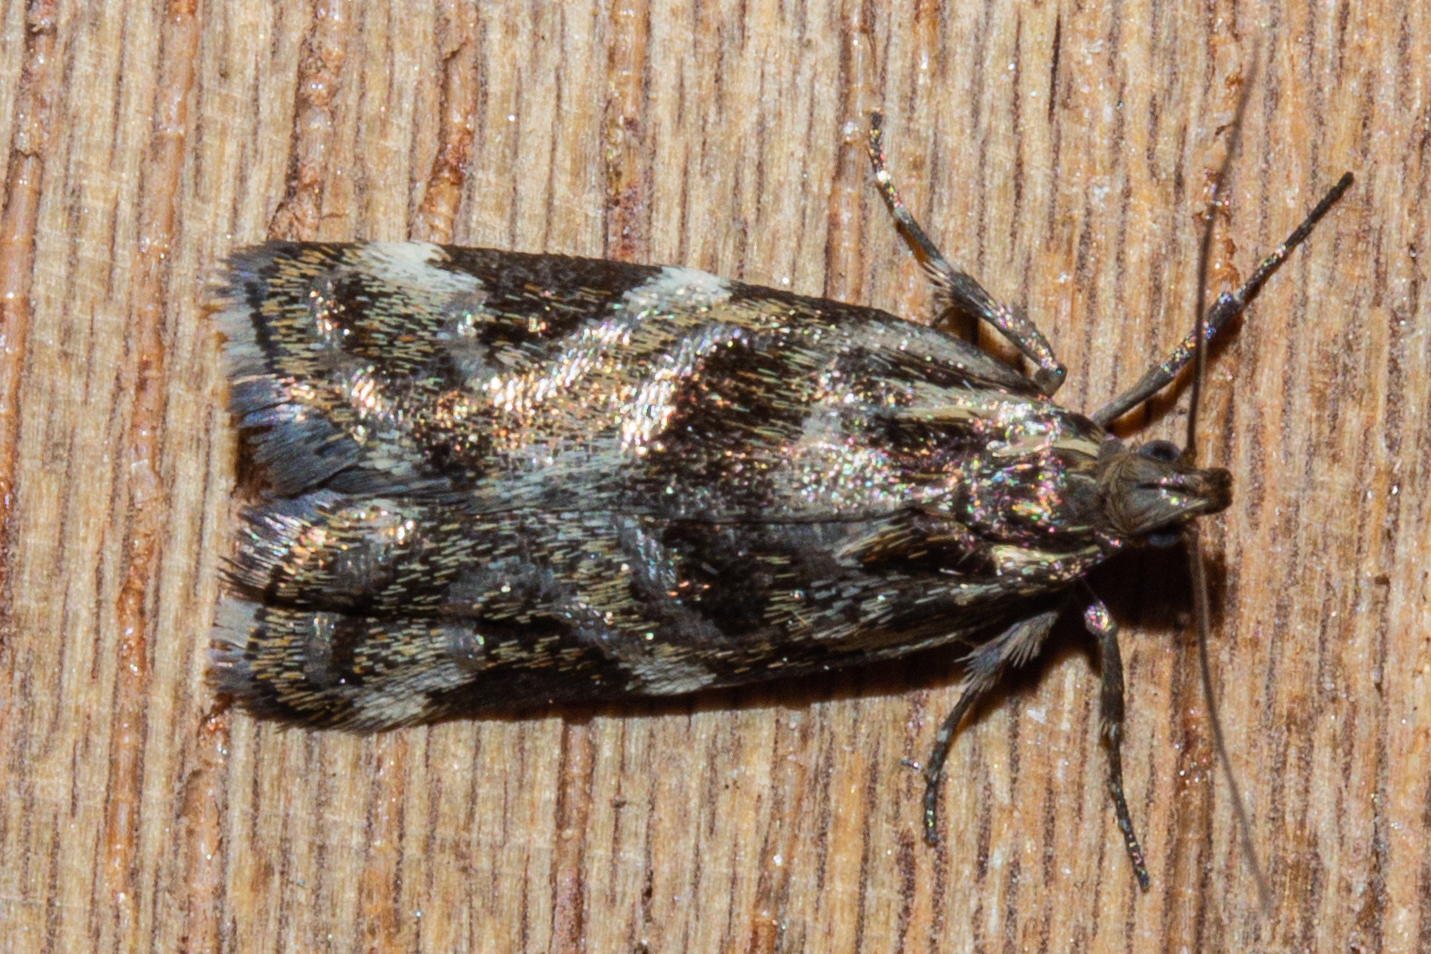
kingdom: Animalia
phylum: Arthropoda
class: Insecta
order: Lepidoptera
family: Oecophoridae
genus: Hierodoris
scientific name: Hierodoris s-fractum
